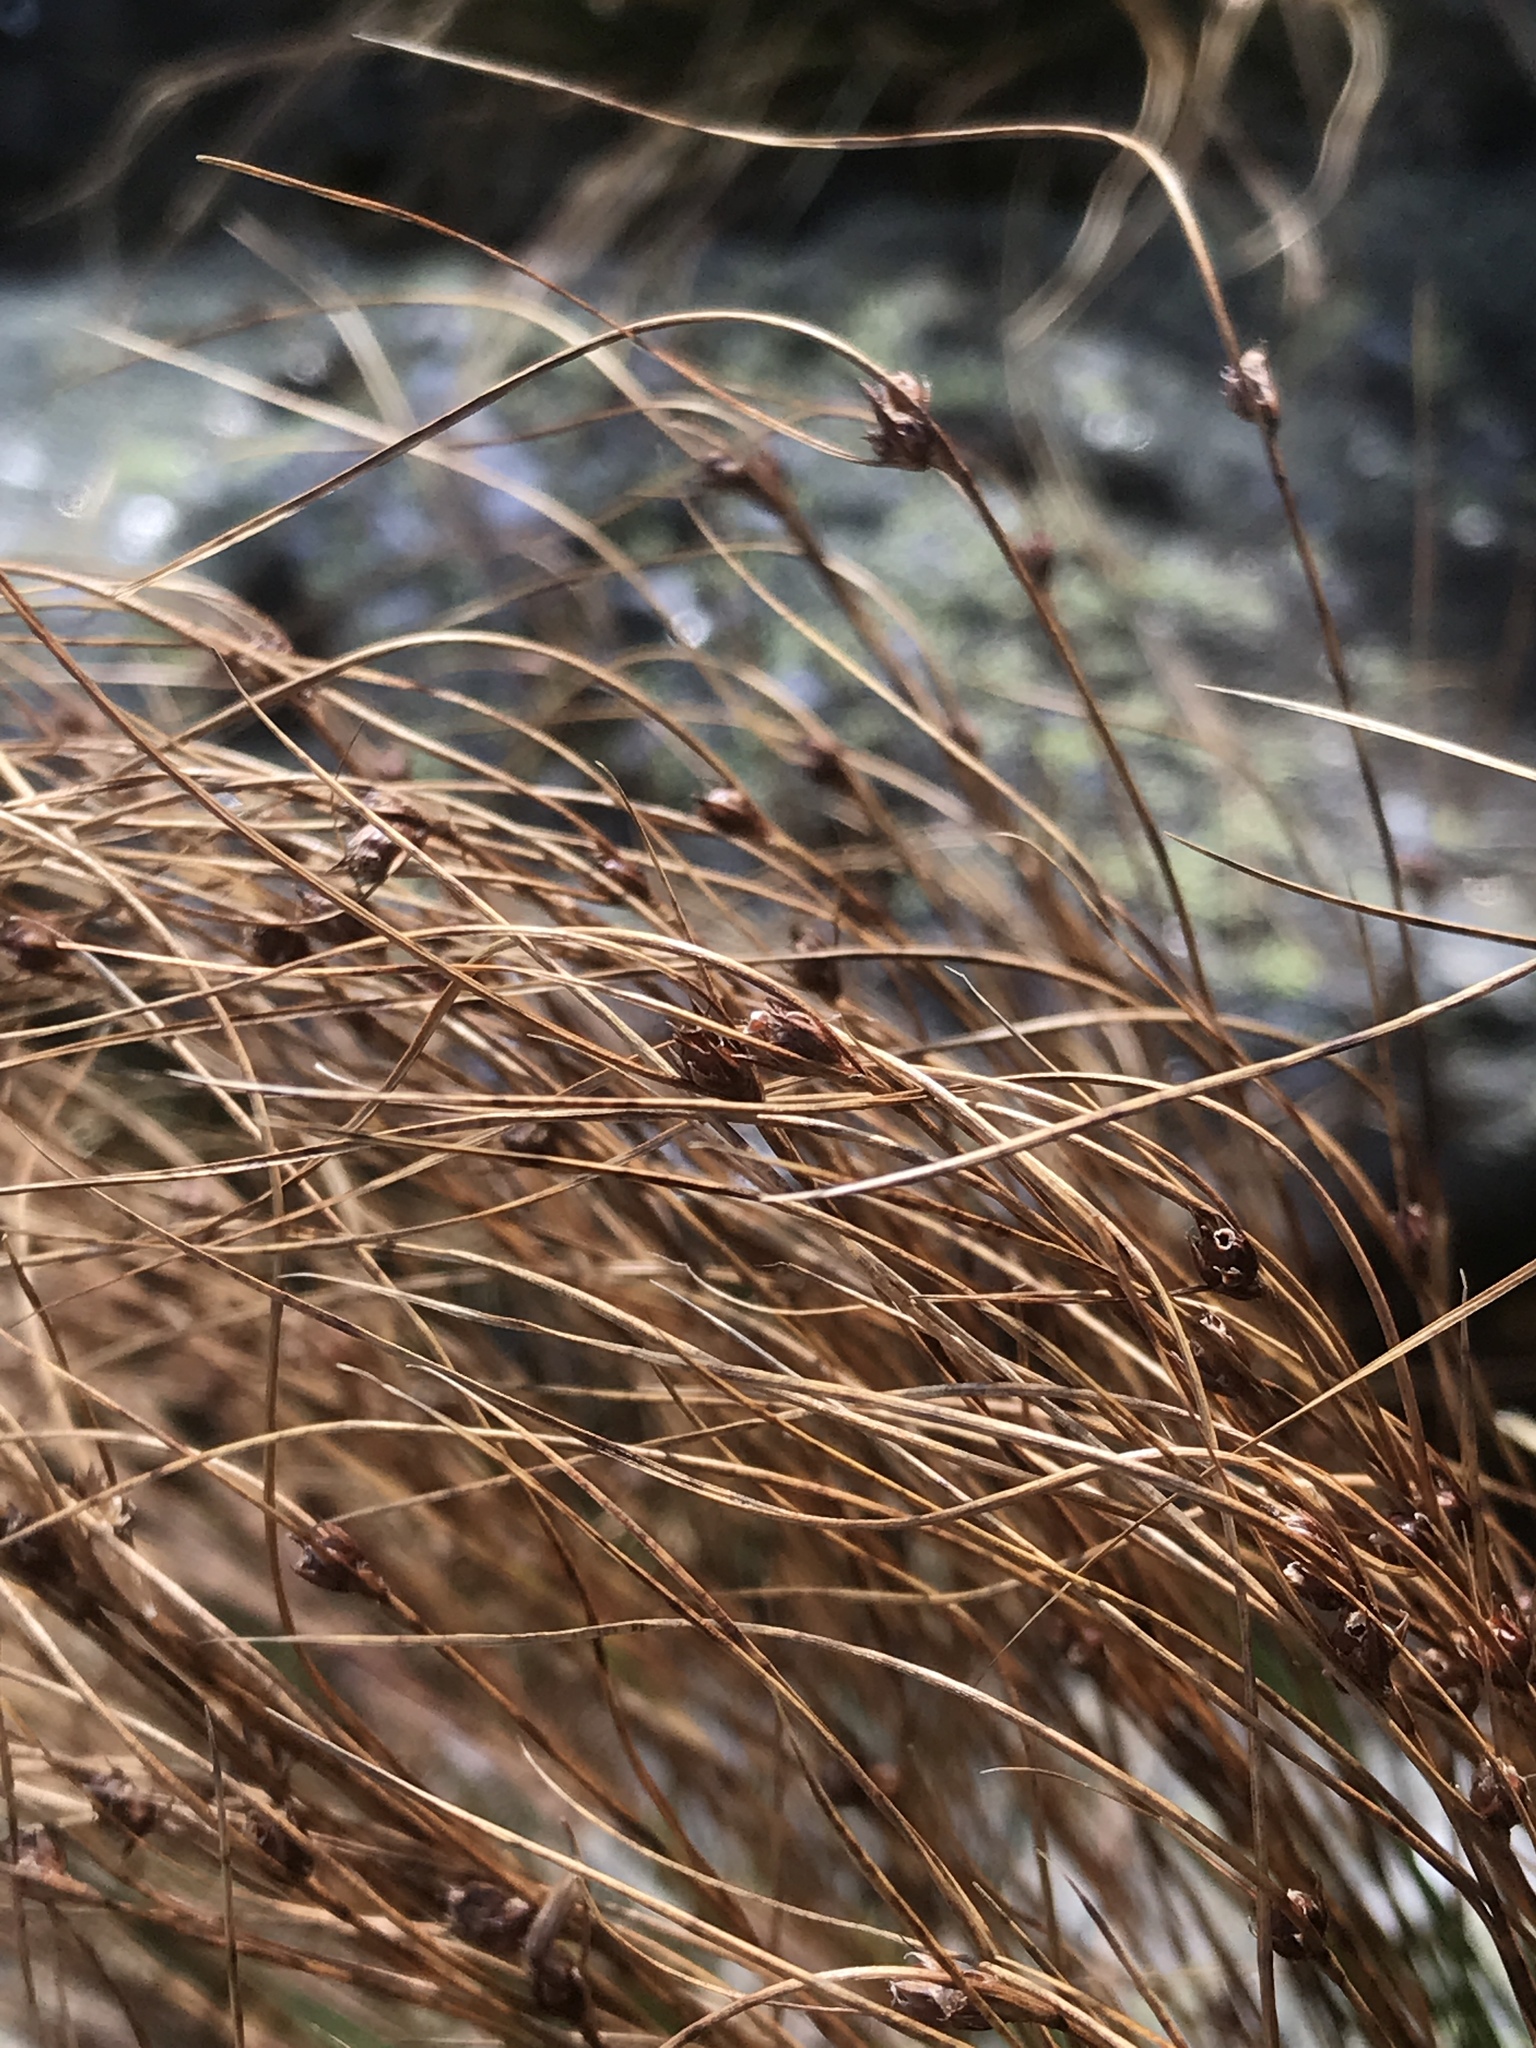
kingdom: Plantae
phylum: Tracheophyta
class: Liliopsida
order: Poales
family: Juncaceae
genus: Oreojuncus
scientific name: Oreojuncus trifidus
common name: Highland rush
